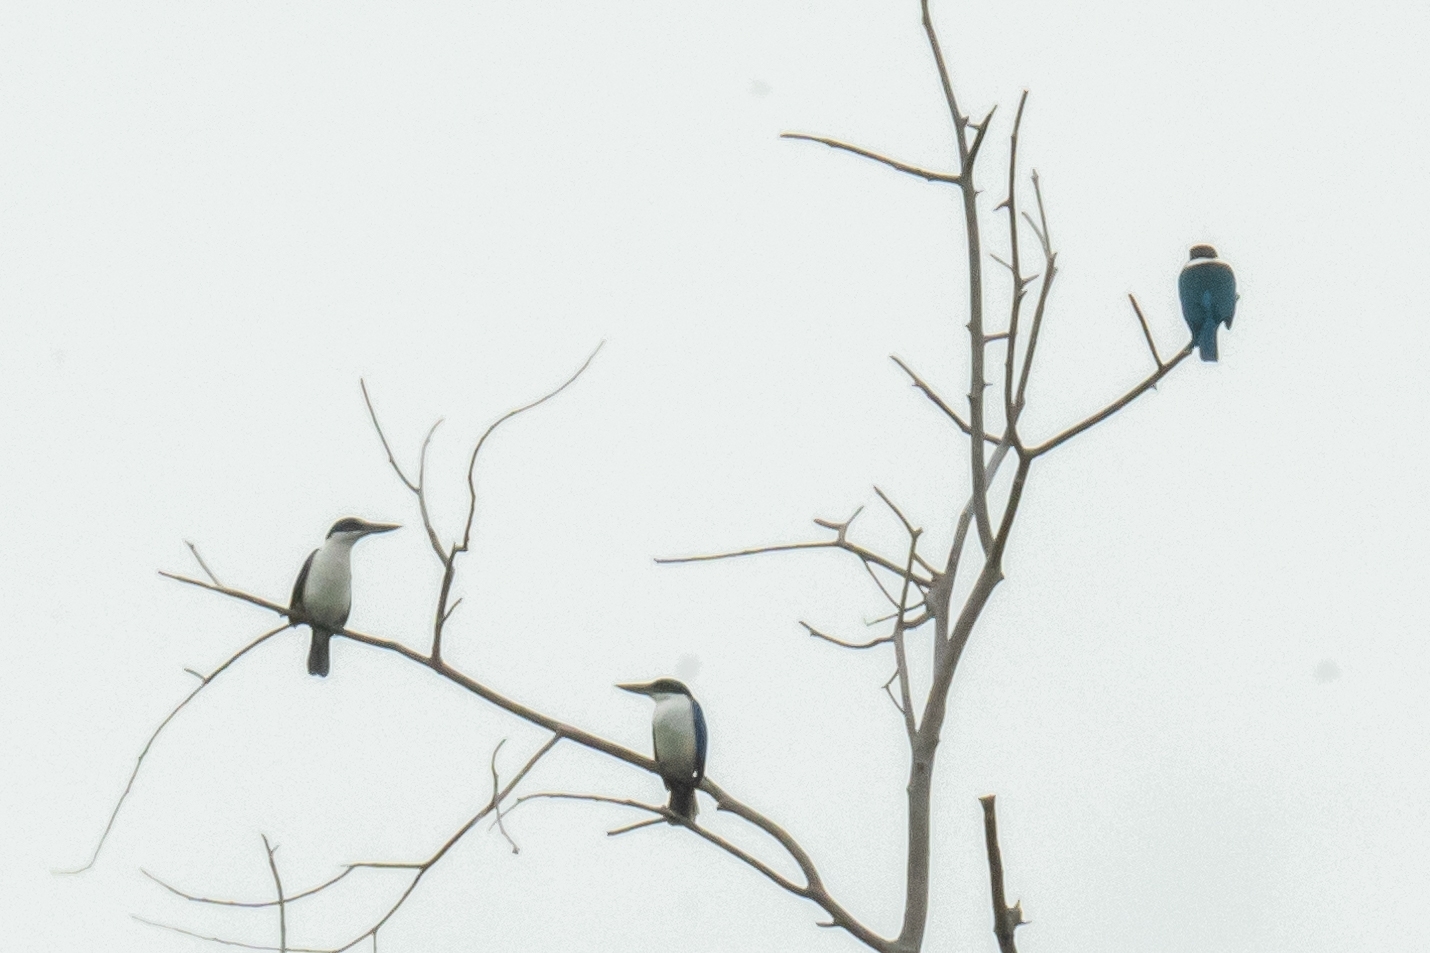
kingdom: Animalia
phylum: Chordata
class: Aves
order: Coraciiformes
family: Alcedinidae
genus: Todiramphus
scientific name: Todiramphus chloris
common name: Collared kingfisher
